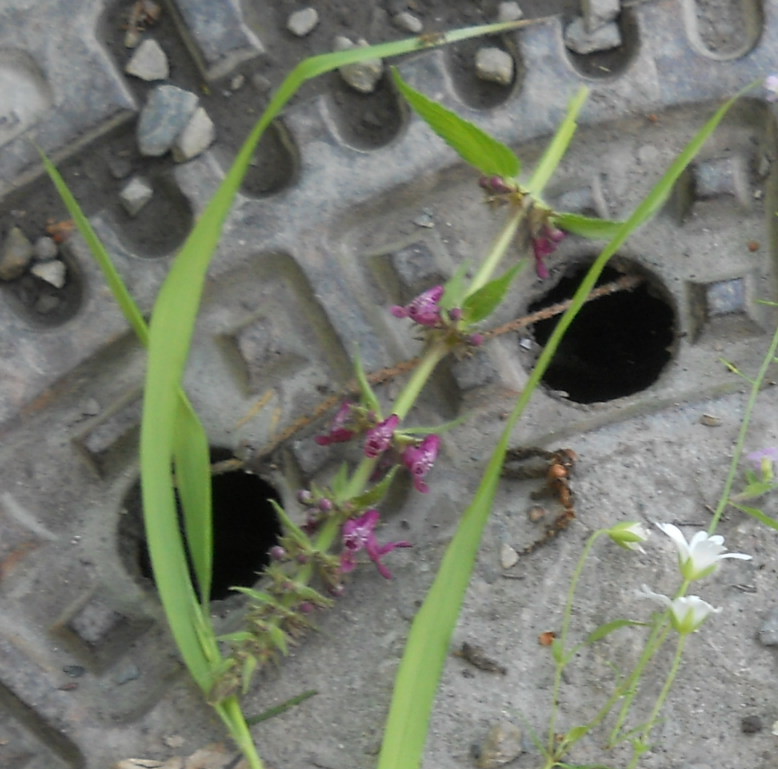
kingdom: Plantae
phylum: Tracheophyta
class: Magnoliopsida
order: Lamiales
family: Lamiaceae
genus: Stachys
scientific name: Stachys sylvatica
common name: Hedge woundwort
